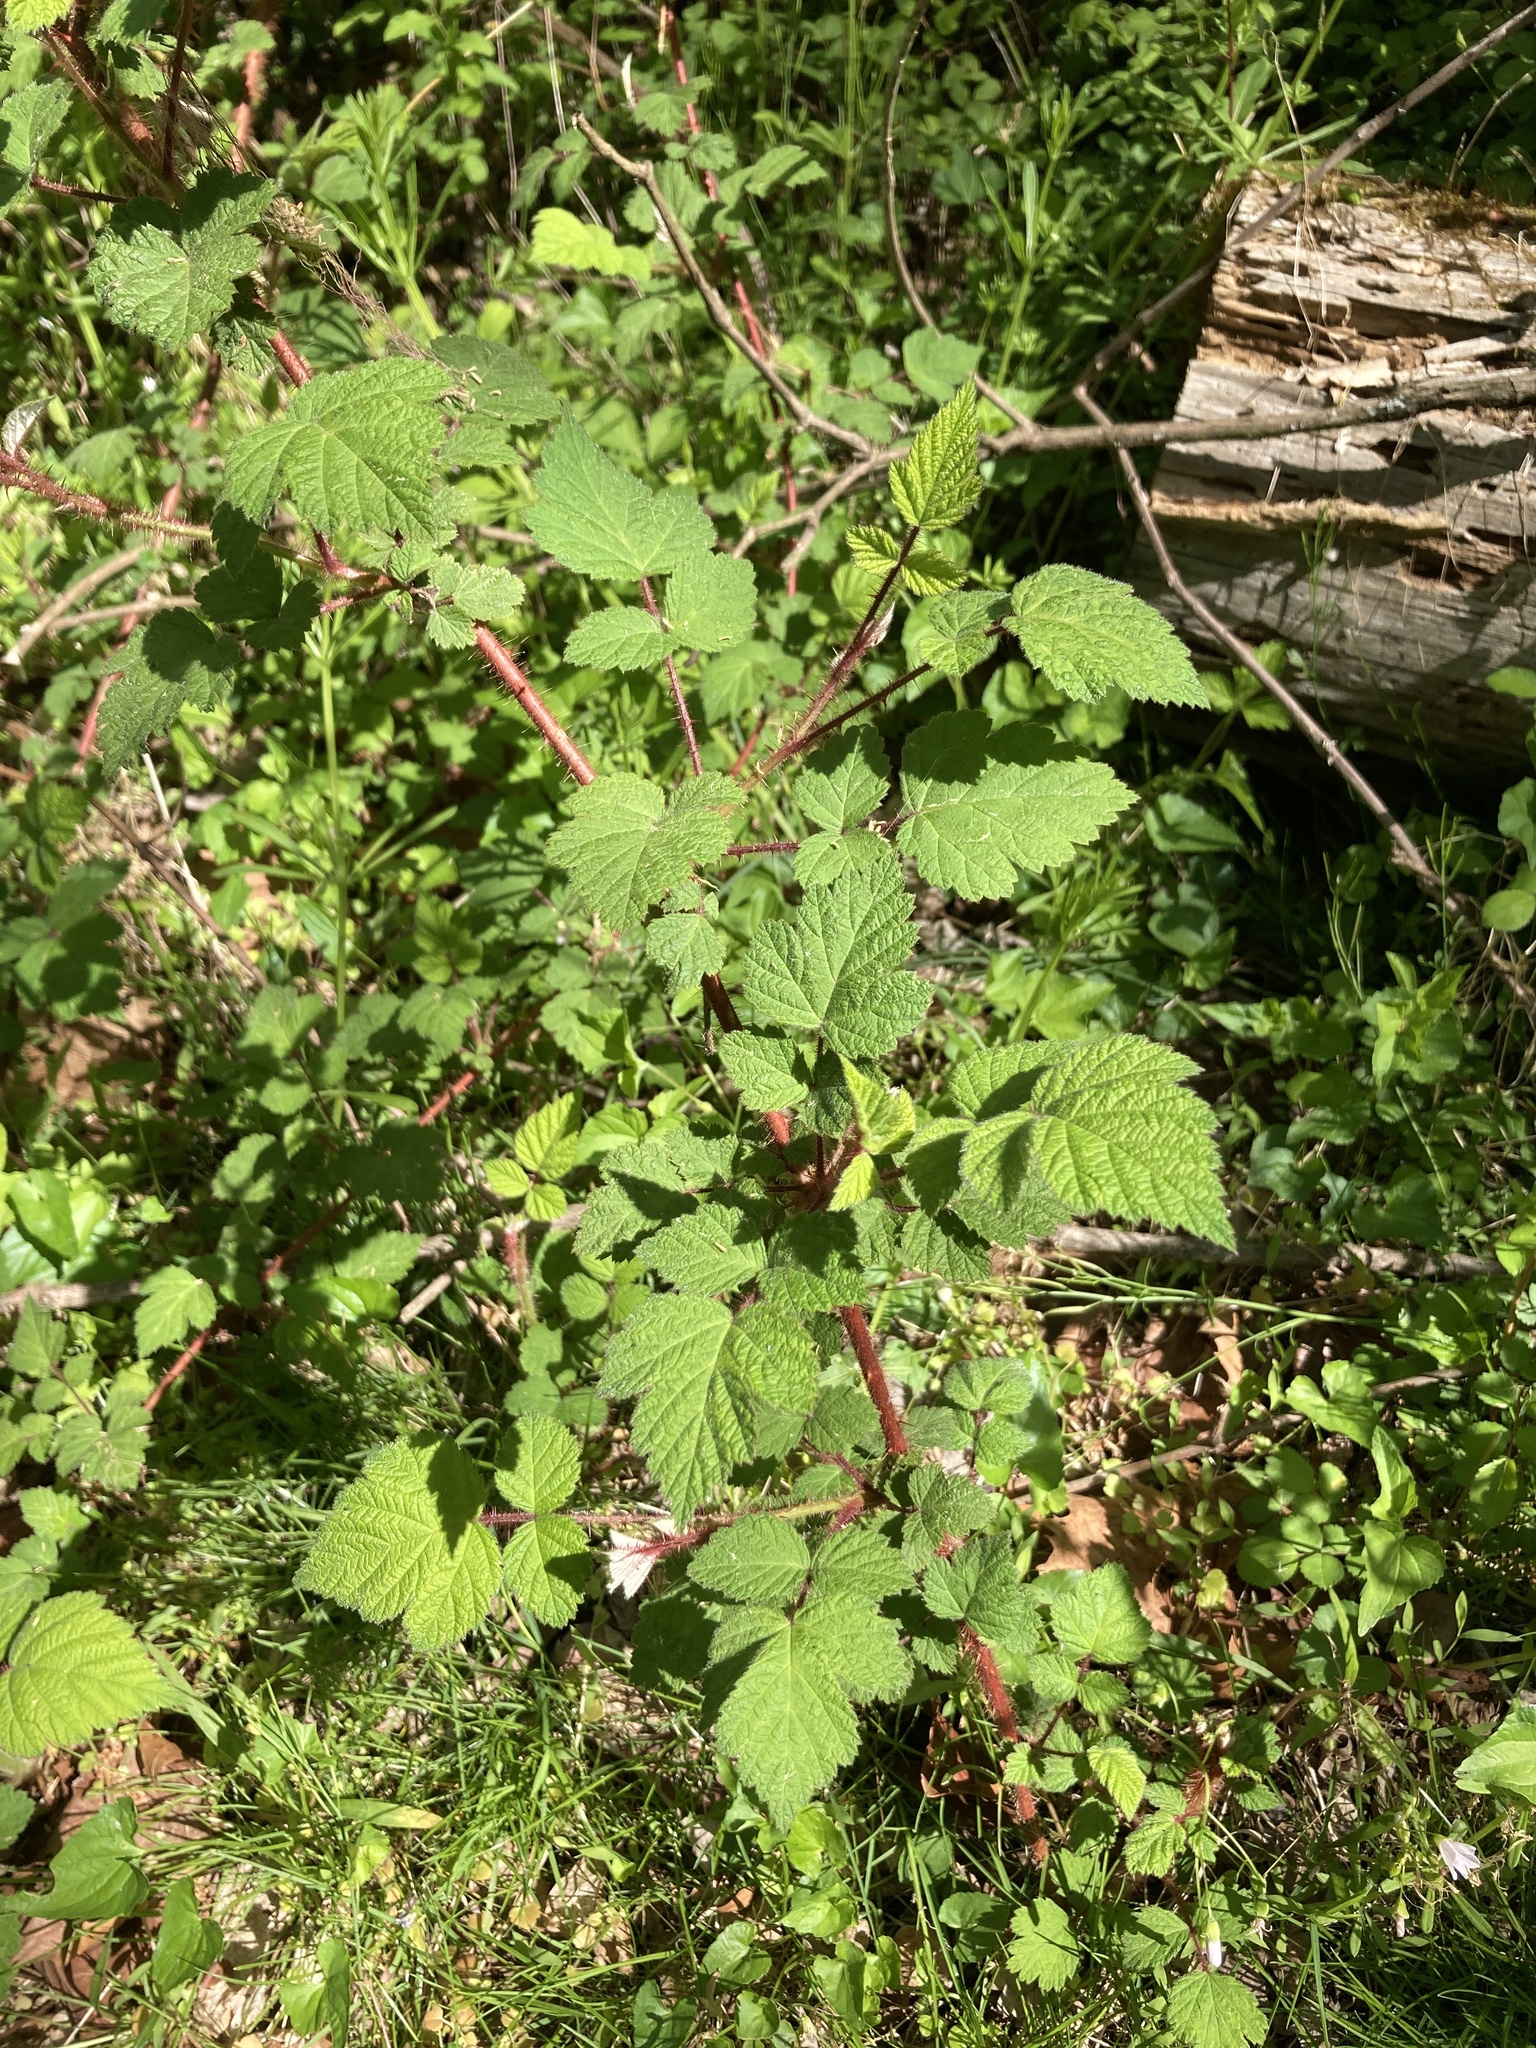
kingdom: Plantae
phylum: Tracheophyta
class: Magnoliopsida
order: Rosales
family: Rosaceae
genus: Rubus
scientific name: Rubus phoenicolasius
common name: Japanese wineberry
